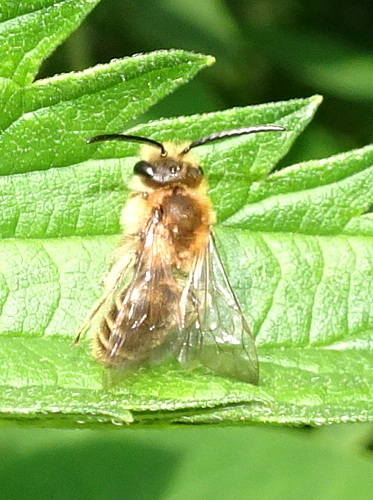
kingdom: Animalia
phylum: Arthropoda
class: Insecta
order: Hymenoptera
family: Andrenidae
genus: Andrena
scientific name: Andrena wilkella
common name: Wilke's mining bee
